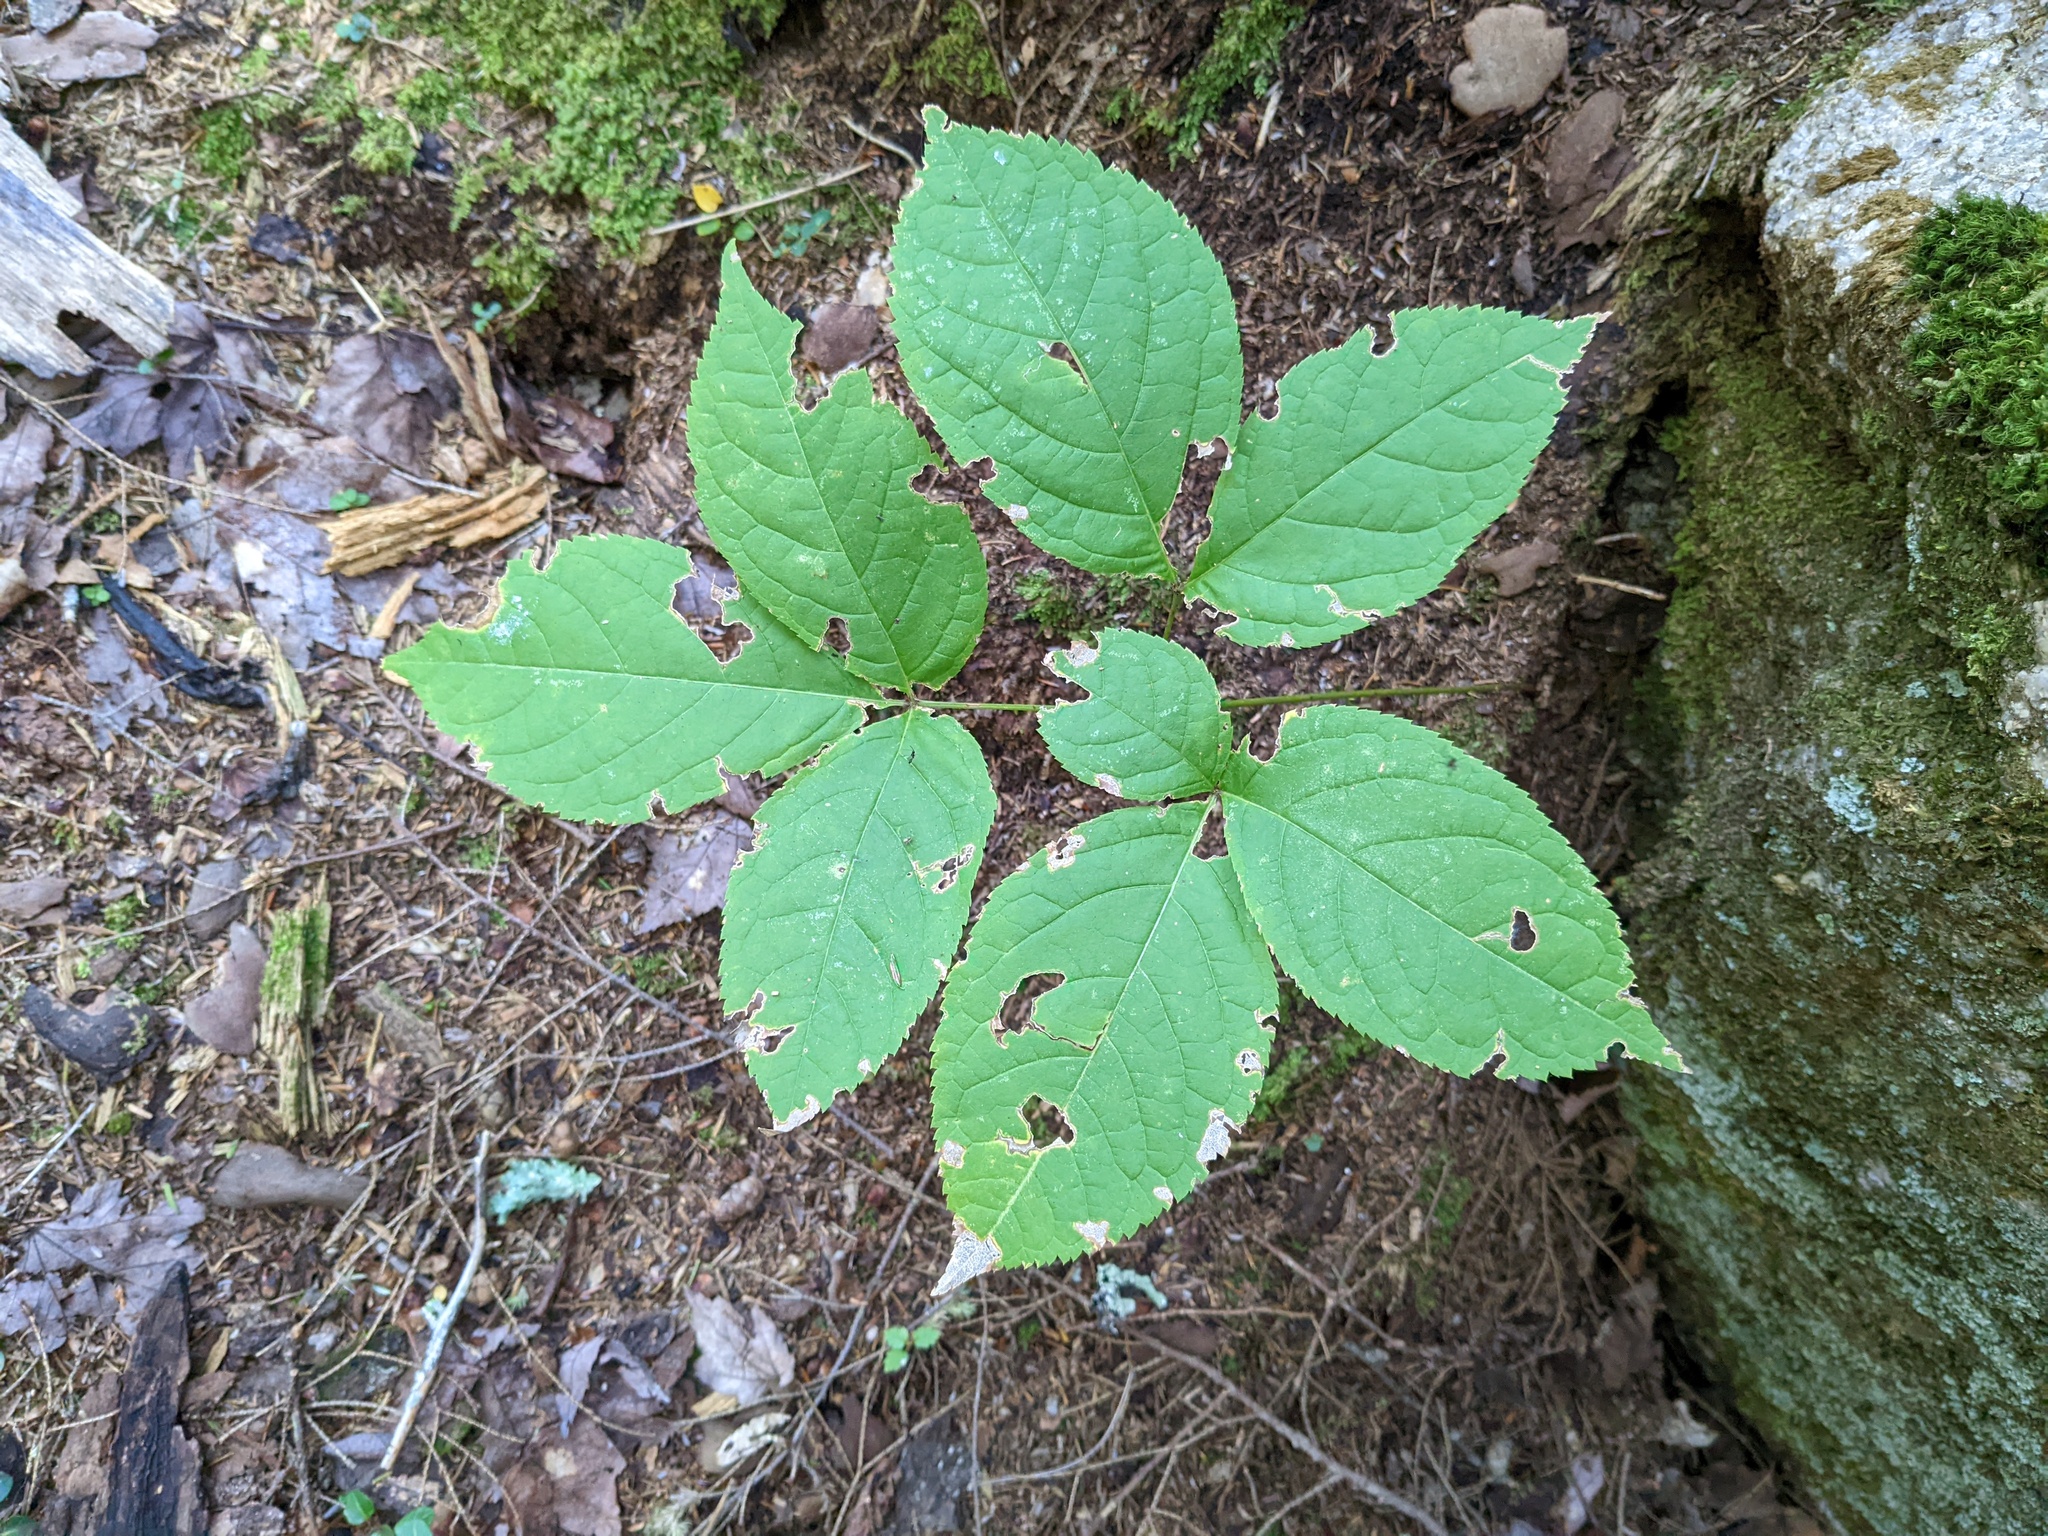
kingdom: Plantae
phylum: Tracheophyta
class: Magnoliopsida
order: Apiales
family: Araliaceae
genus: Aralia
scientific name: Aralia nudicaulis
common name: Wild sarsaparilla
